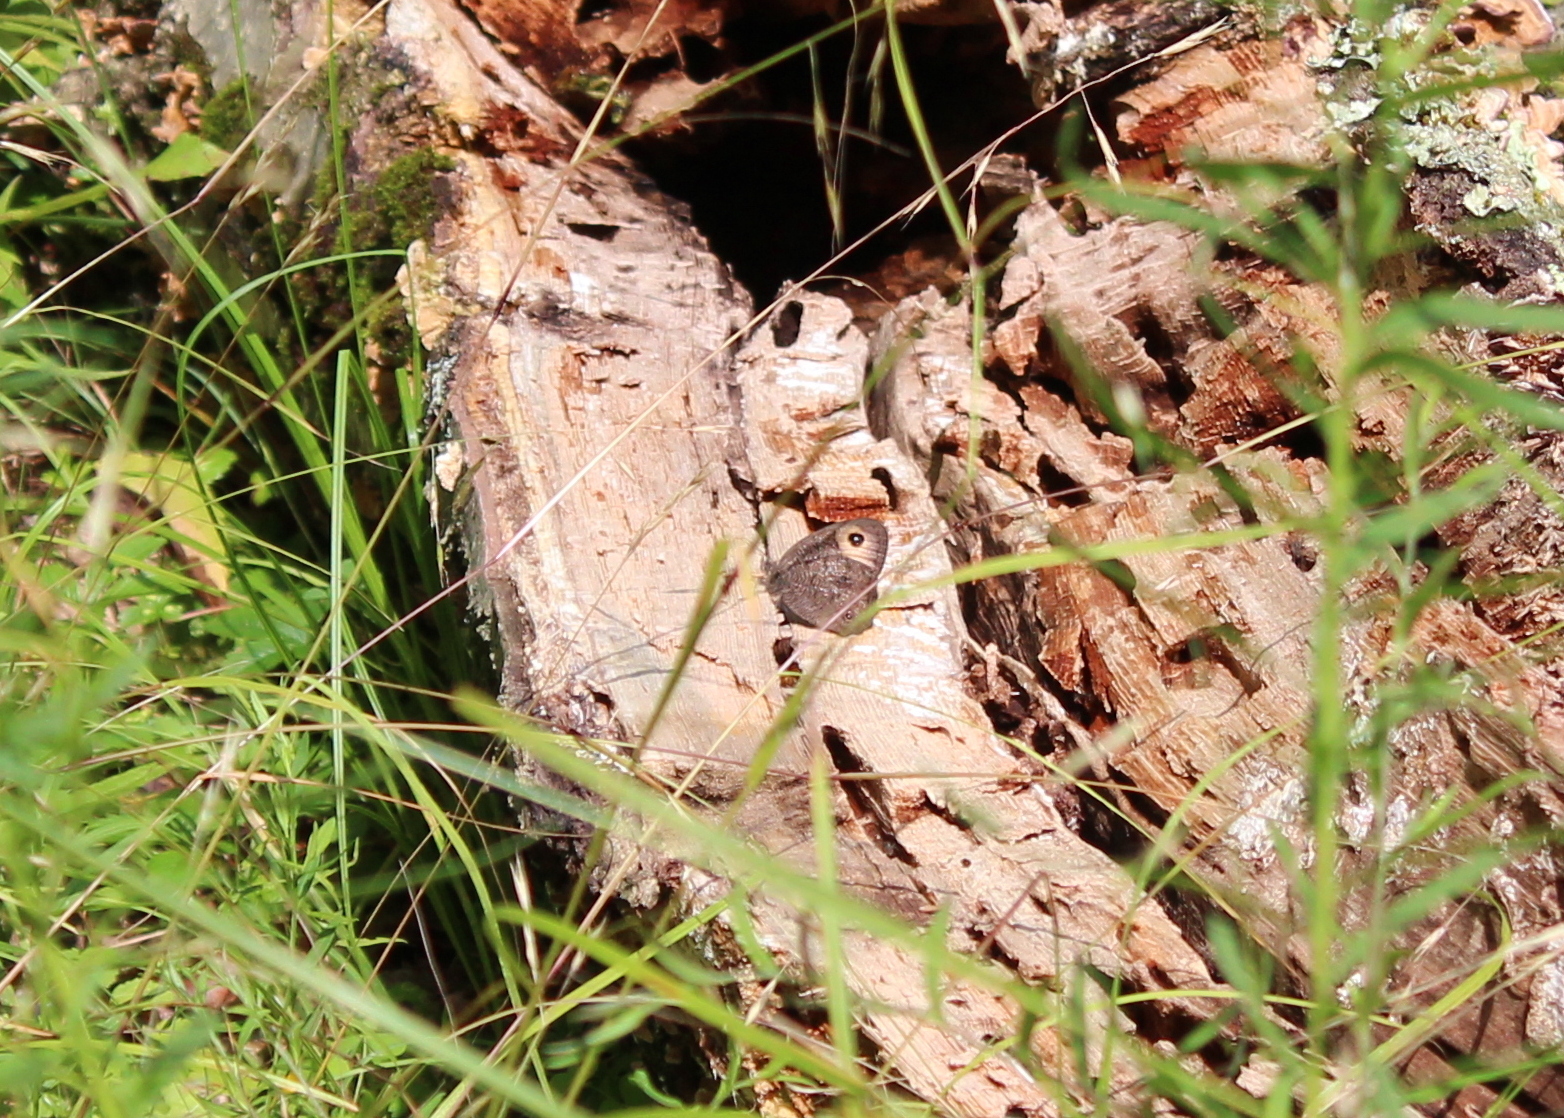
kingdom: Animalia
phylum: Arthropoda
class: Insecta
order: Lepidoptera
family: Nymphalidae
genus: Cercyonis
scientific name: Cercyonis pegala
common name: Common wood-nymph
